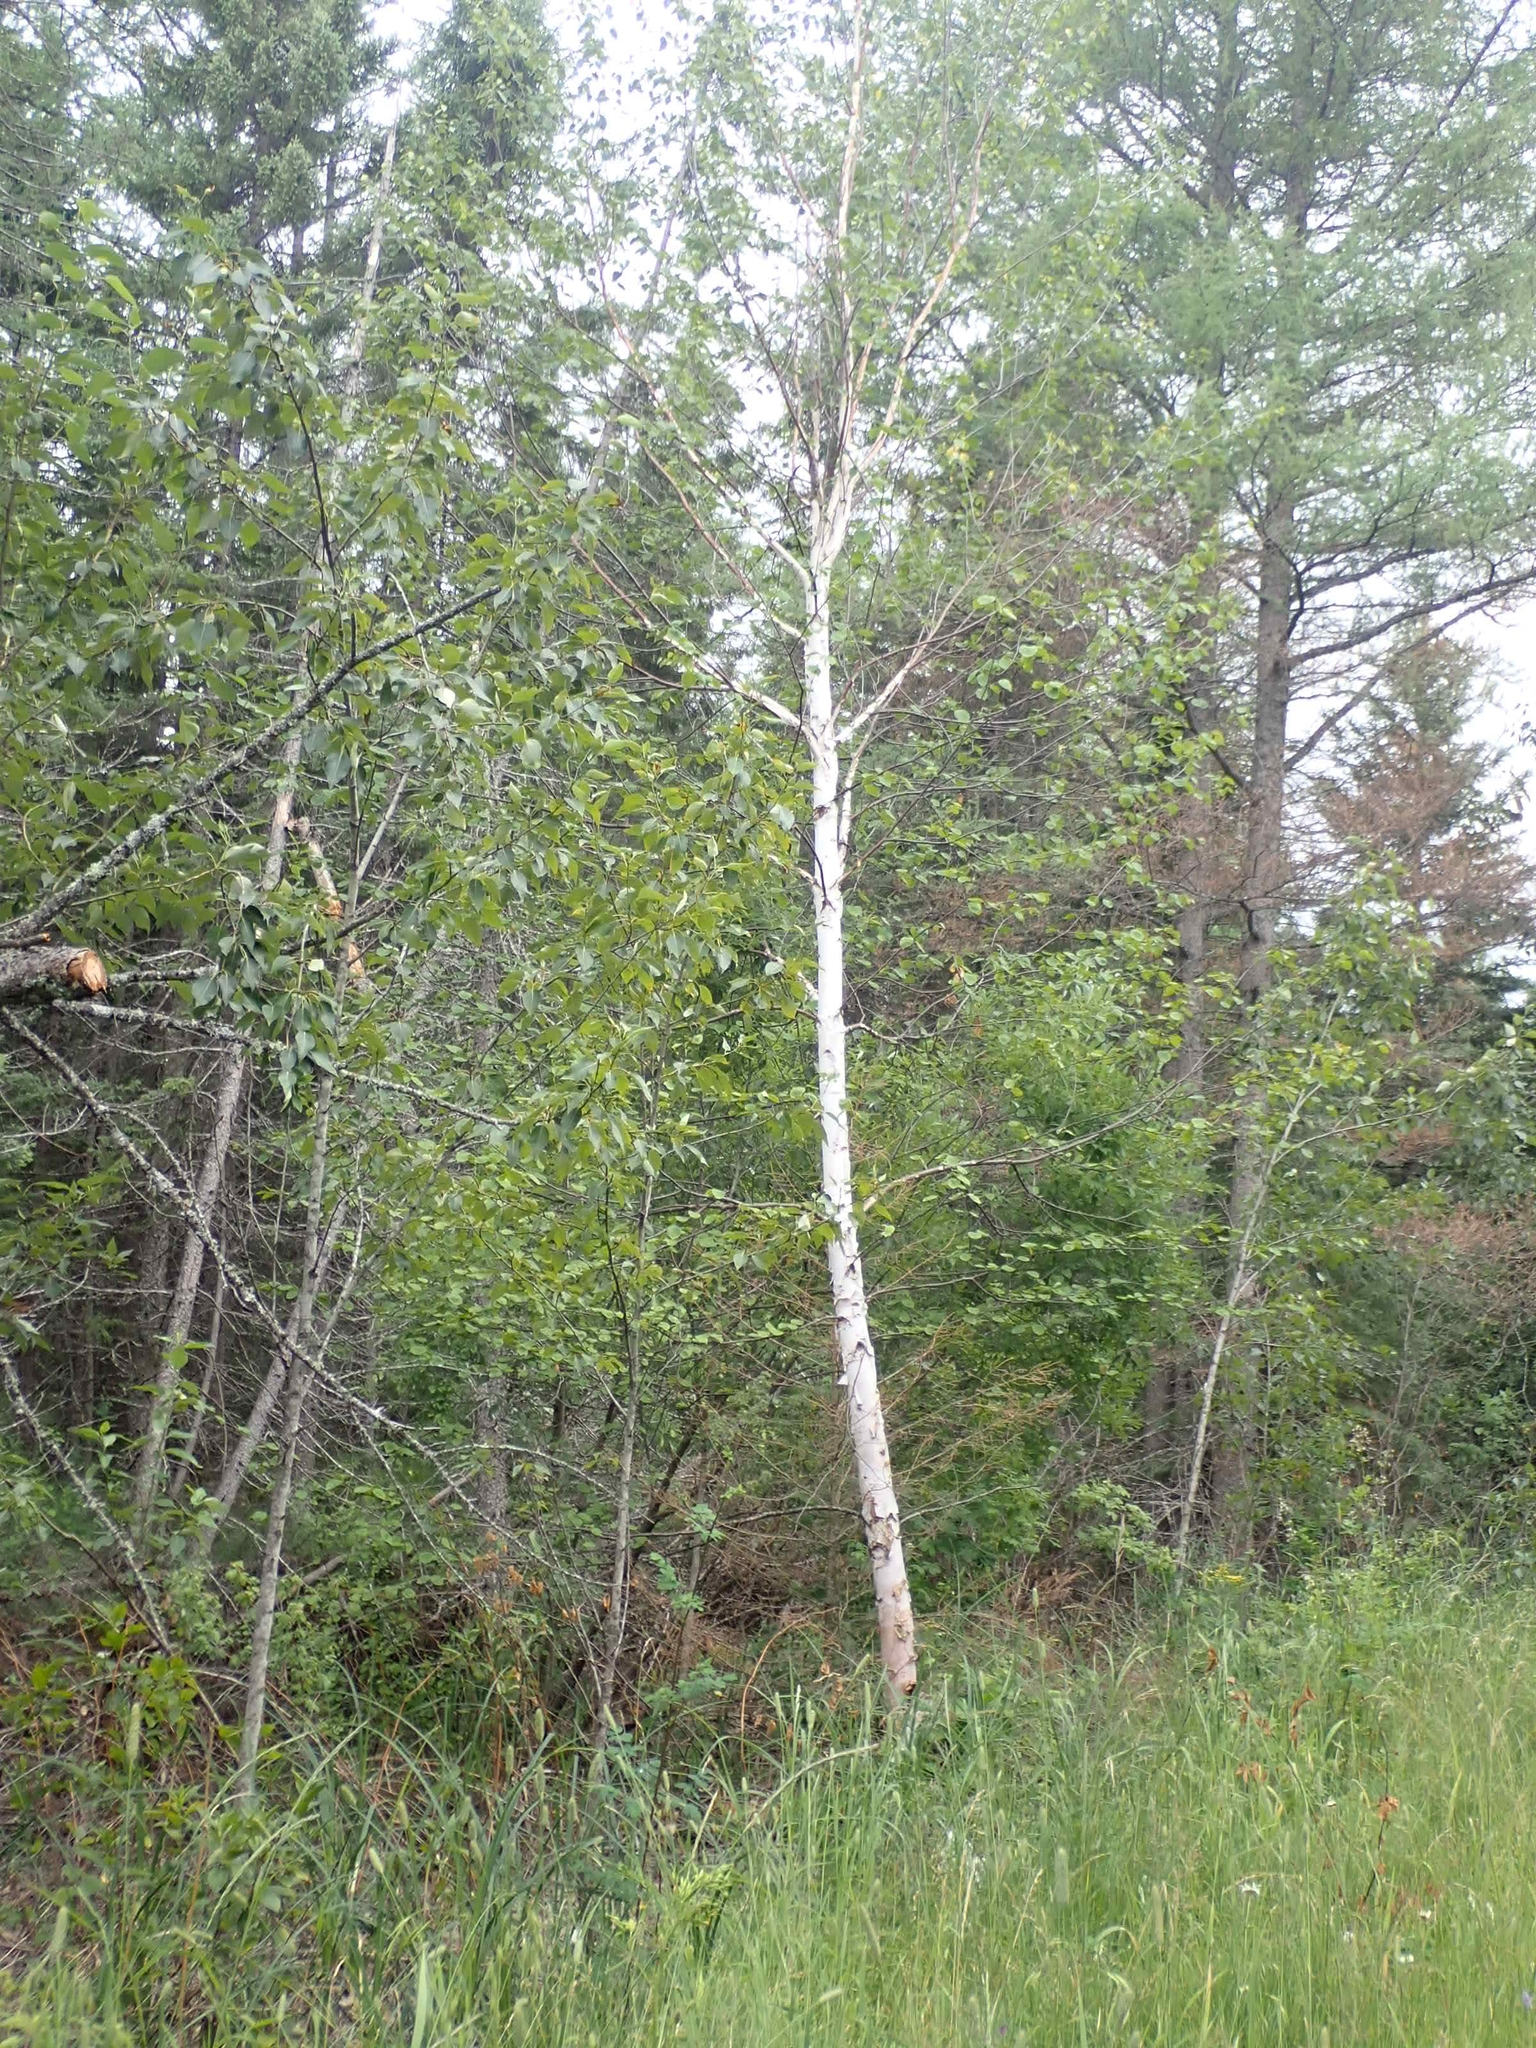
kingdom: Plantae
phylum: Tracheophyta
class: Magnoliopsida
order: Fagales
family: Betulaceae
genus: Betula
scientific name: Betula papyrifera
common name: Paper birch
